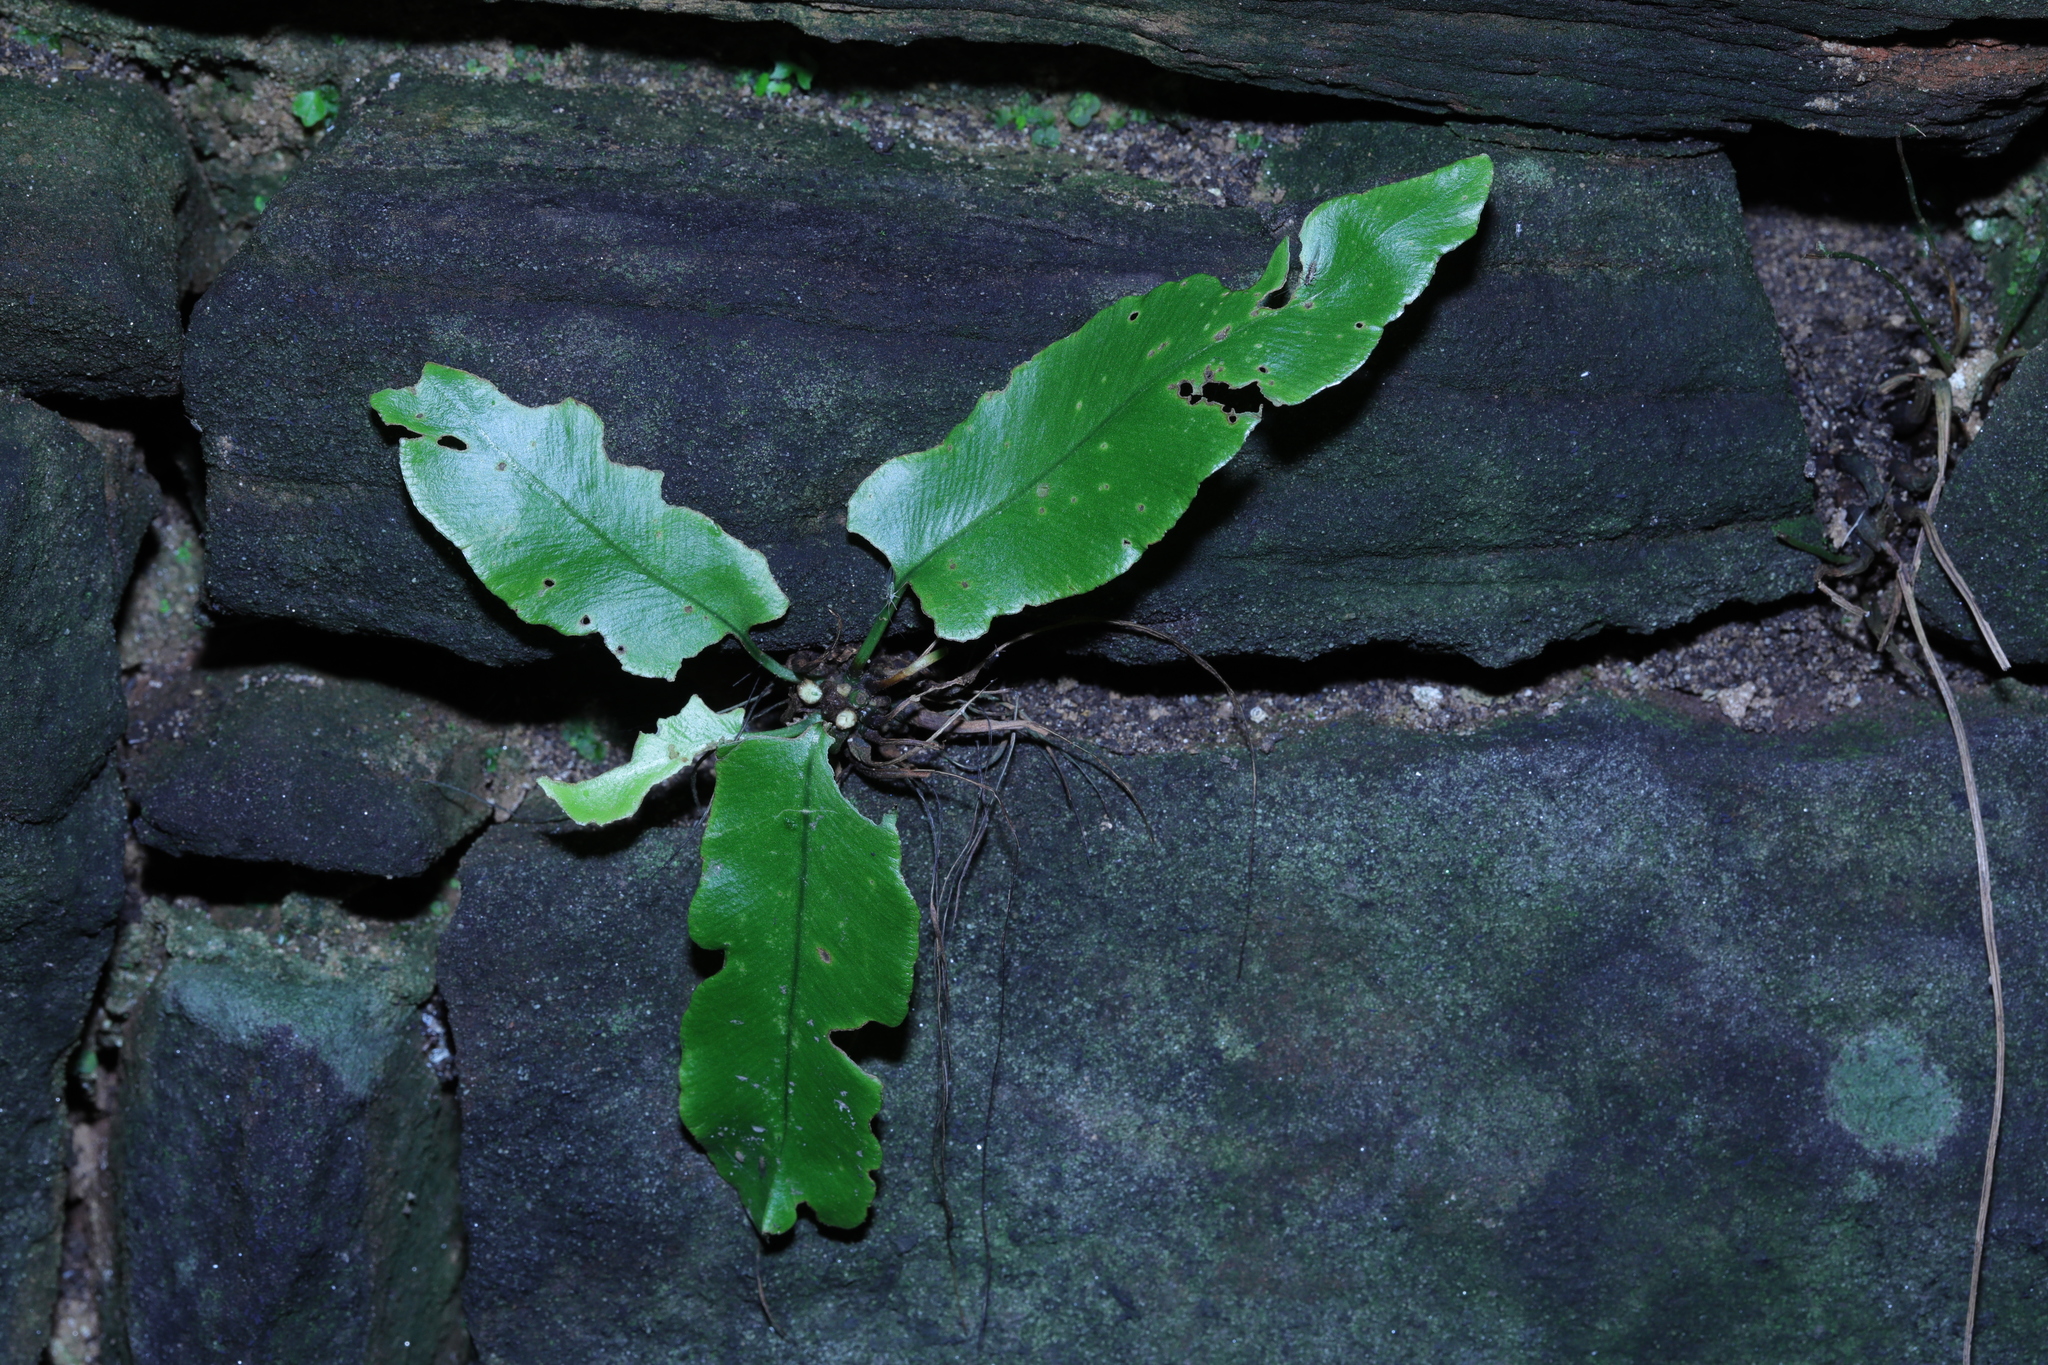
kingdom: Plantae
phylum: Tracheophyta
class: Polypodiopsida
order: Polypodiales
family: Aspleniaceae
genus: Asplenium
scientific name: Asplenium scolopendrium
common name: Hart's-tongue fern
